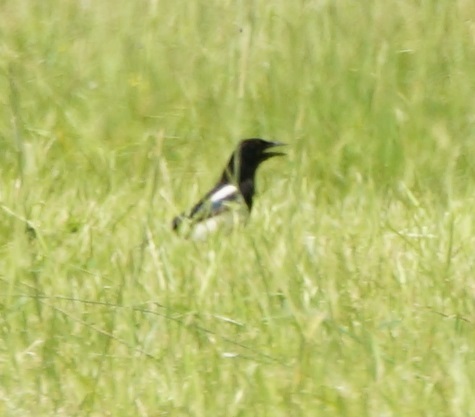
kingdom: Animalia
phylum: Chordata
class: Aves
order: Passeriformes
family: Corvidae
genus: Pica
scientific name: Pica pica
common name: Eurasian magpie
